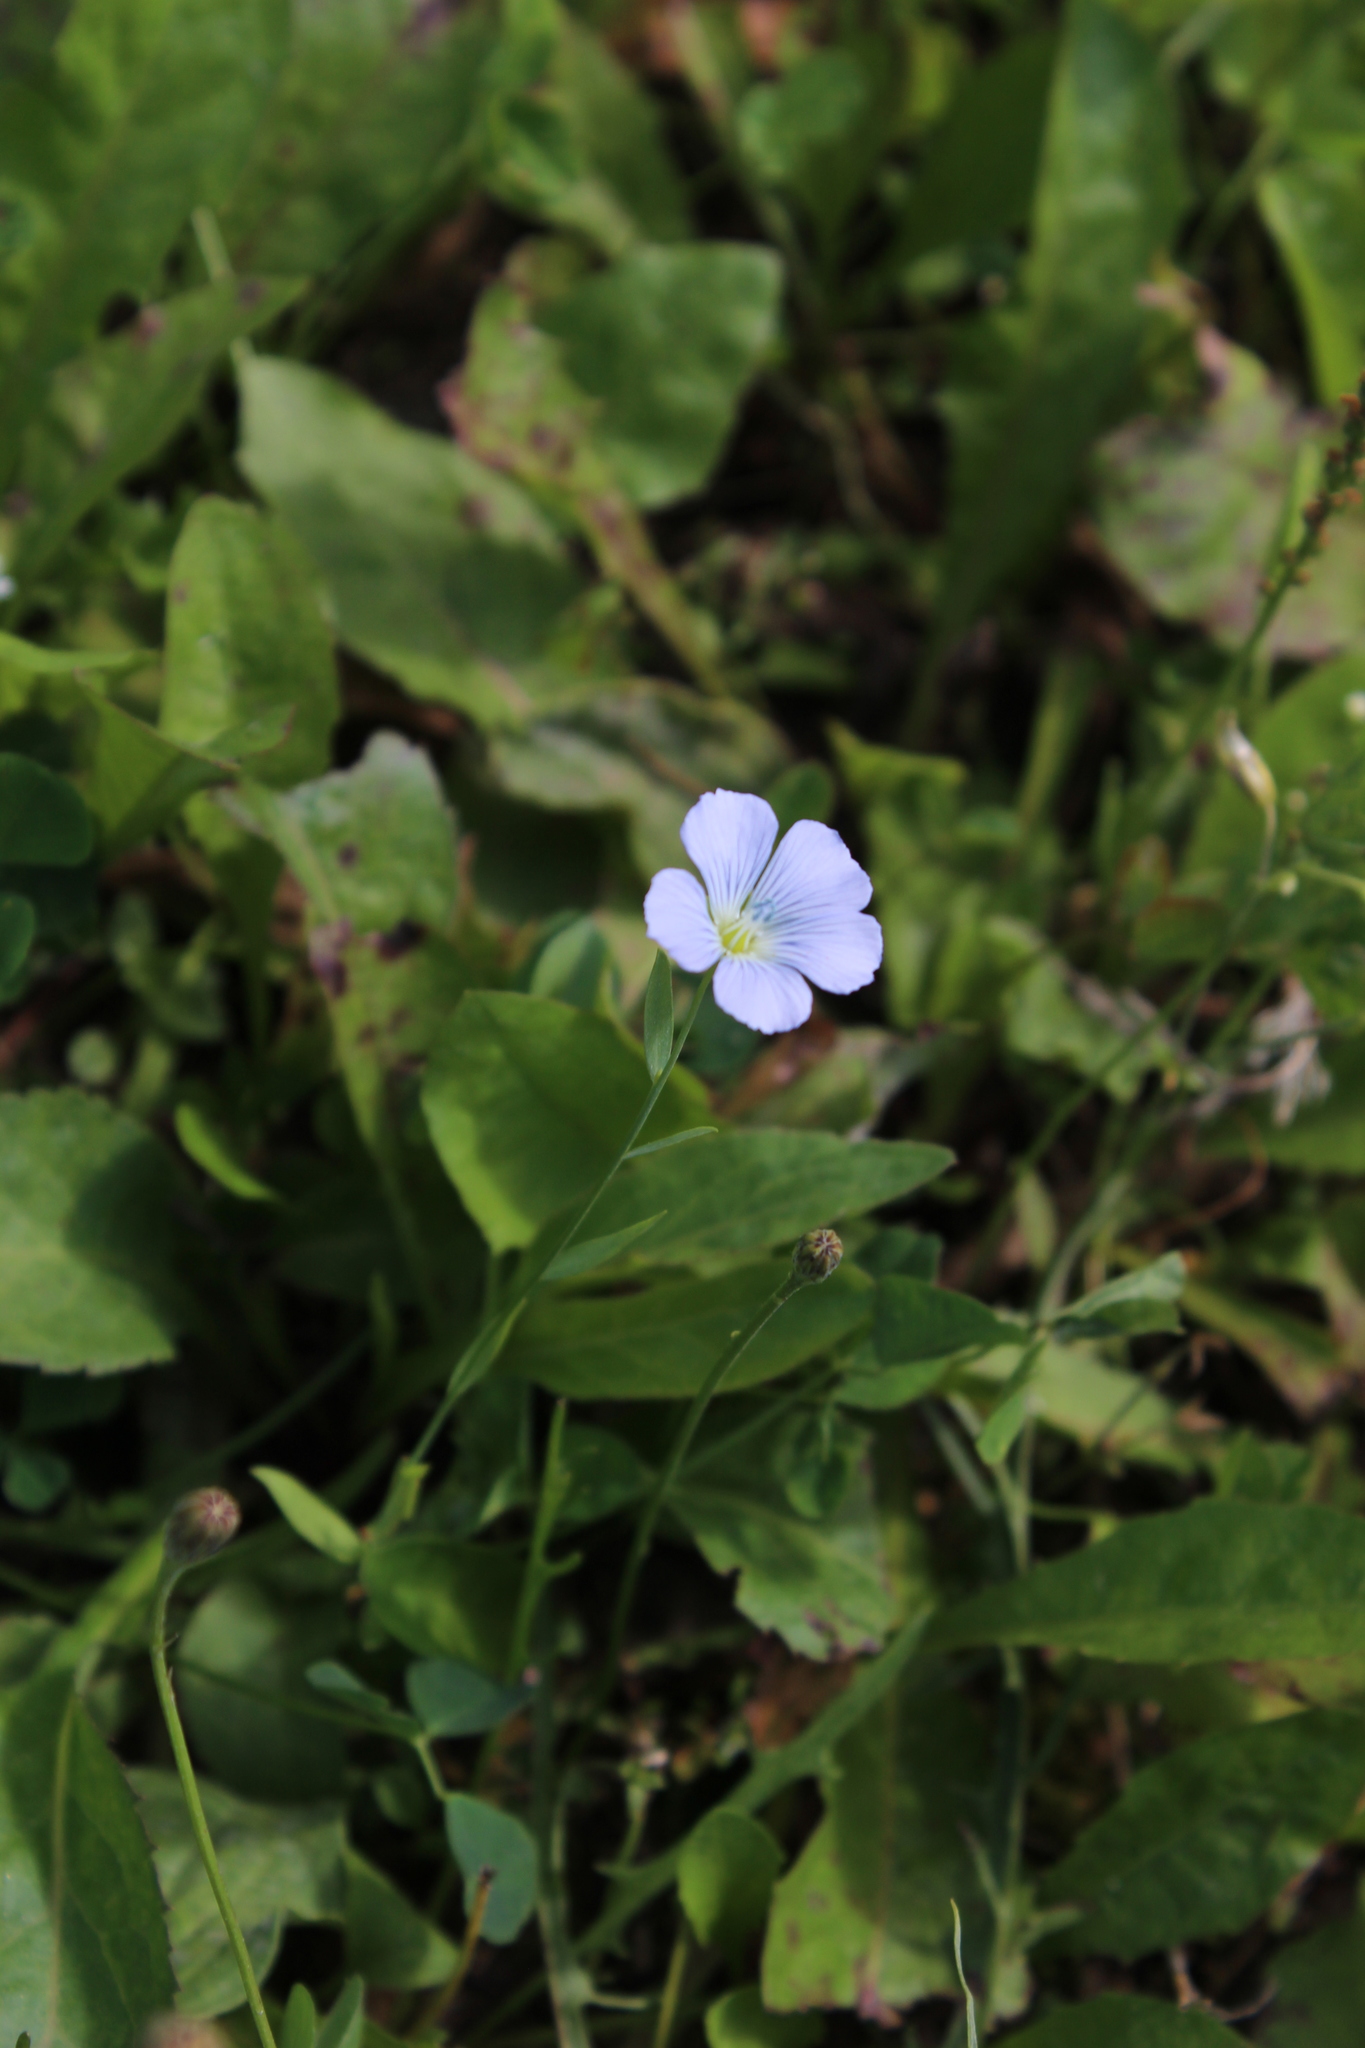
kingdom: Plantae
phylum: Tracheophyta
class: Magnoliopsida
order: Malpighiales
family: Linaceae
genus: Linum
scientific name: Linum usitatissimum
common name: Flax
